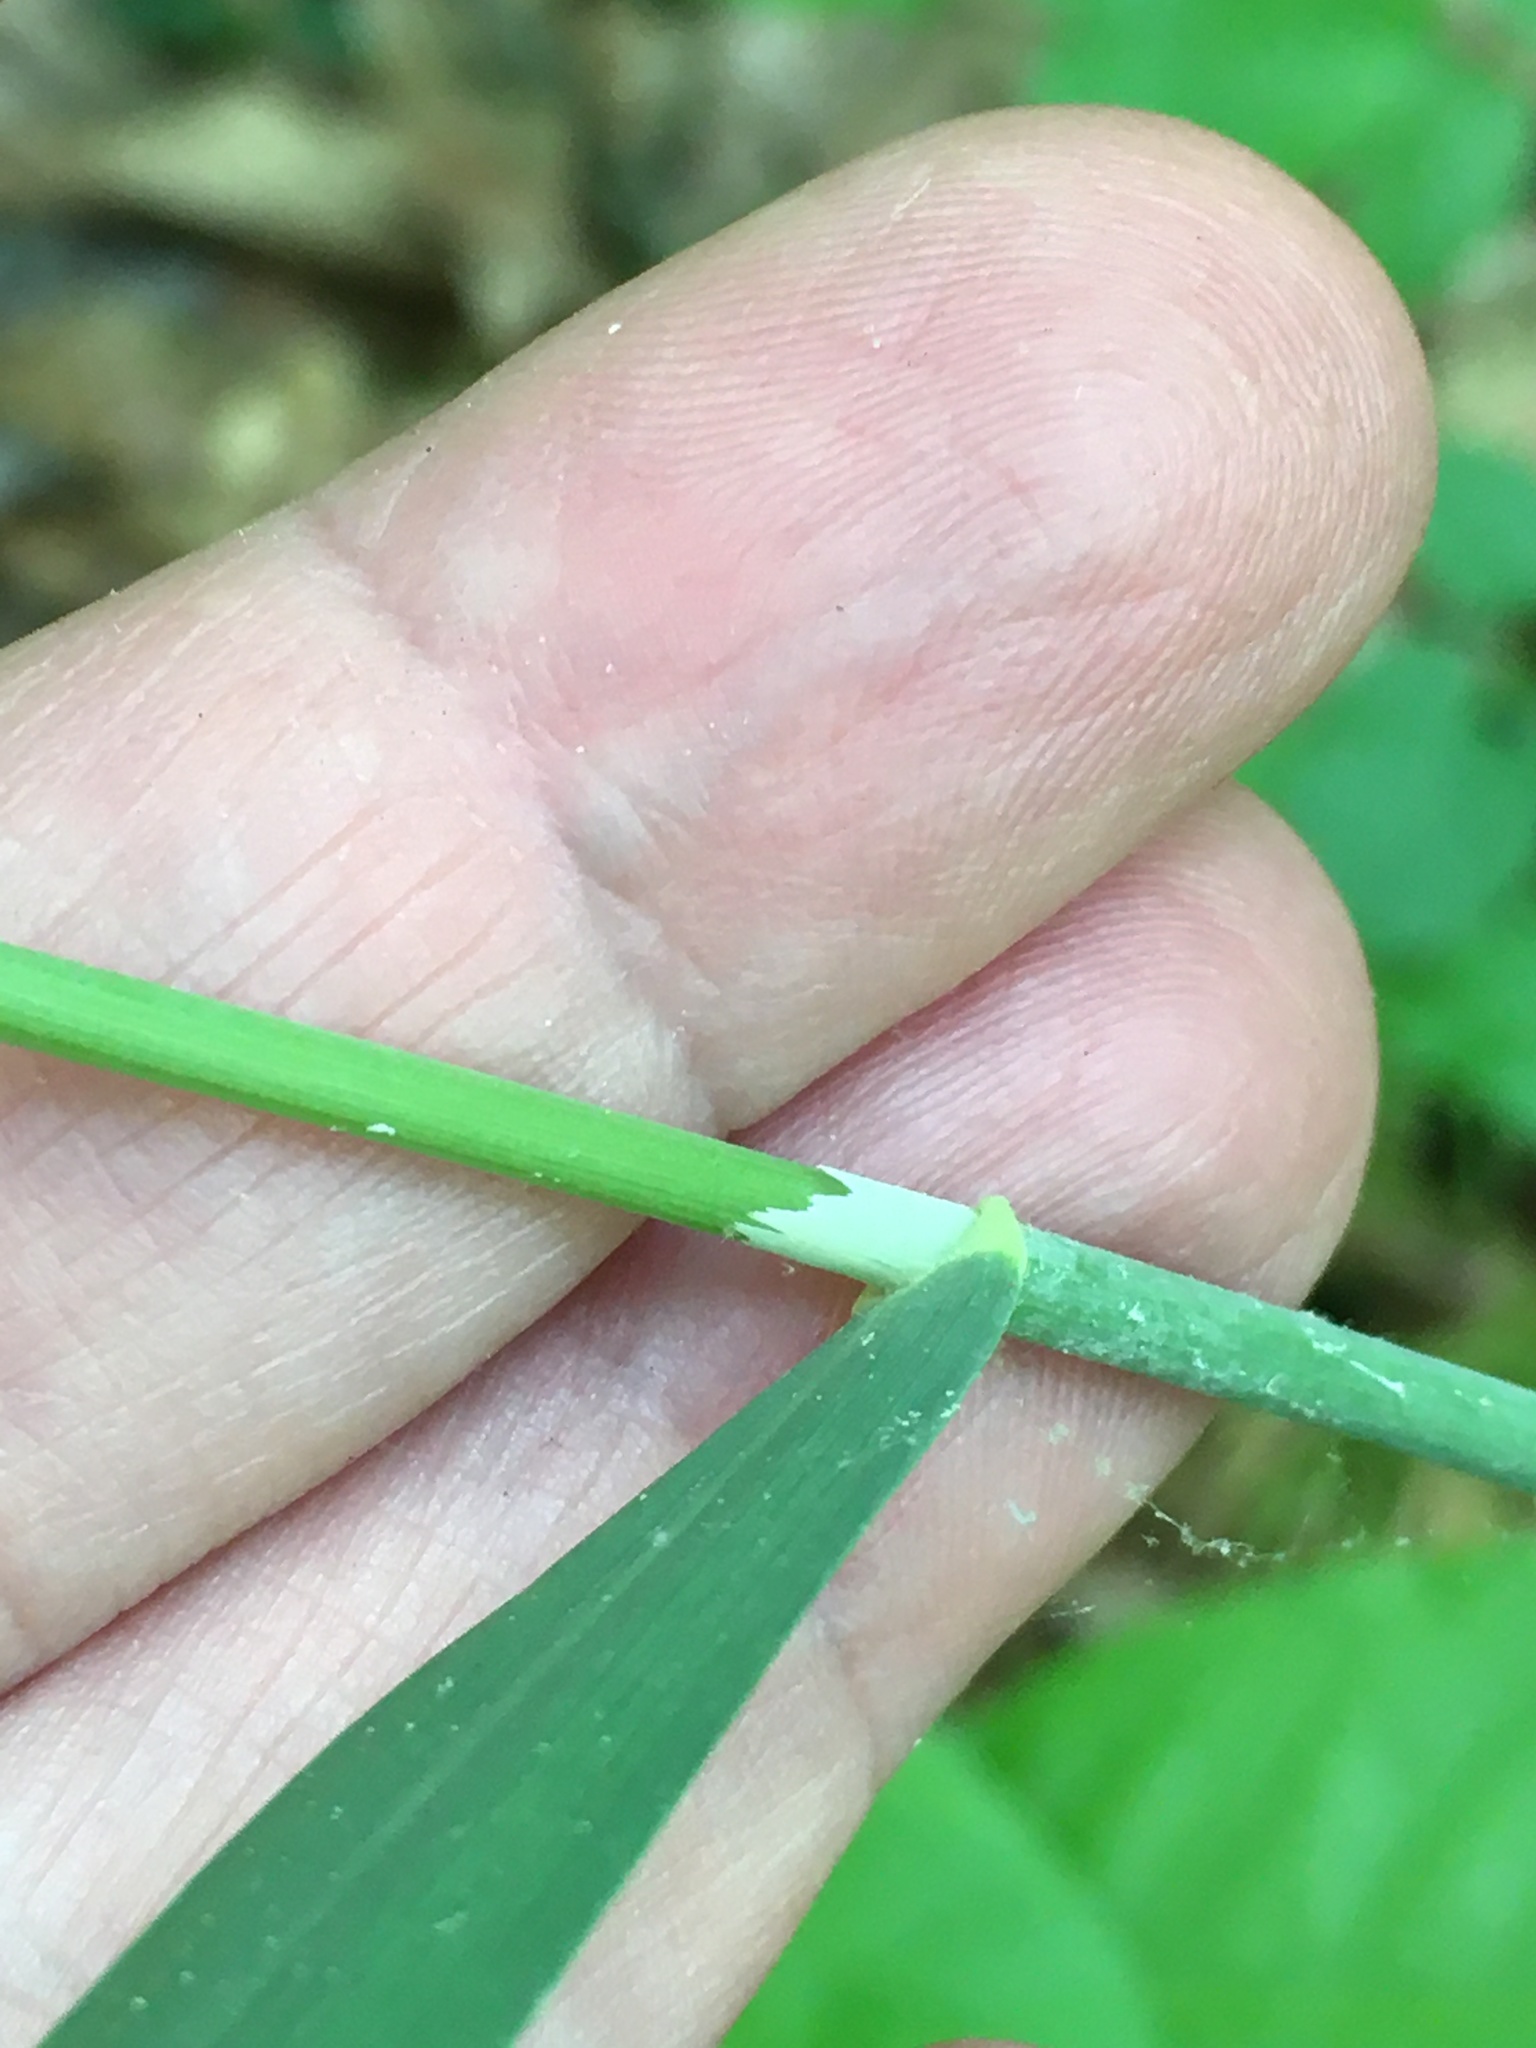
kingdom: Plantae
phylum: Tracheophyta
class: Liliopsida
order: Poales
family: Poaceae
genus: Milium
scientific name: Milium effusum
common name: Wood millet
